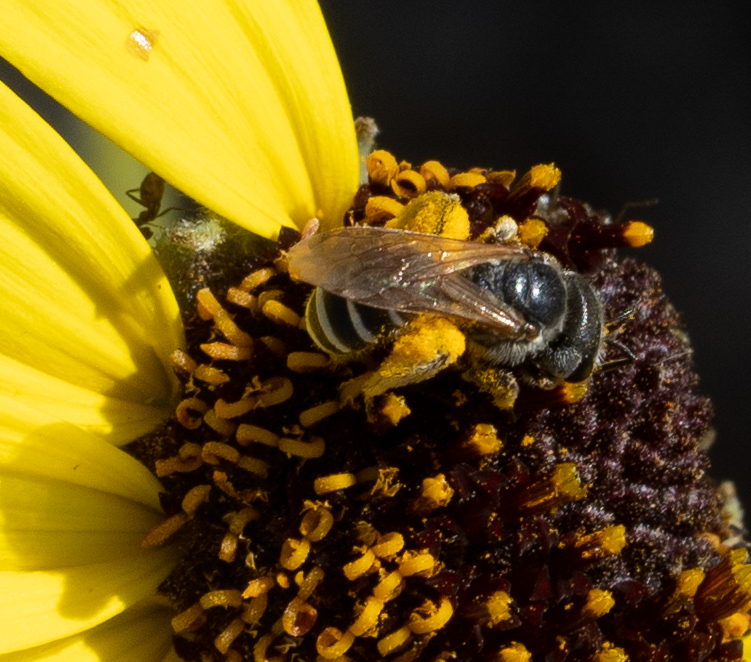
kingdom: Animalia
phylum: Arthropoda
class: Insecta
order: Hymenoptera
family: Halictidae
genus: Halictus
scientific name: Halictus ligatus
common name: Ligated furrow bee
